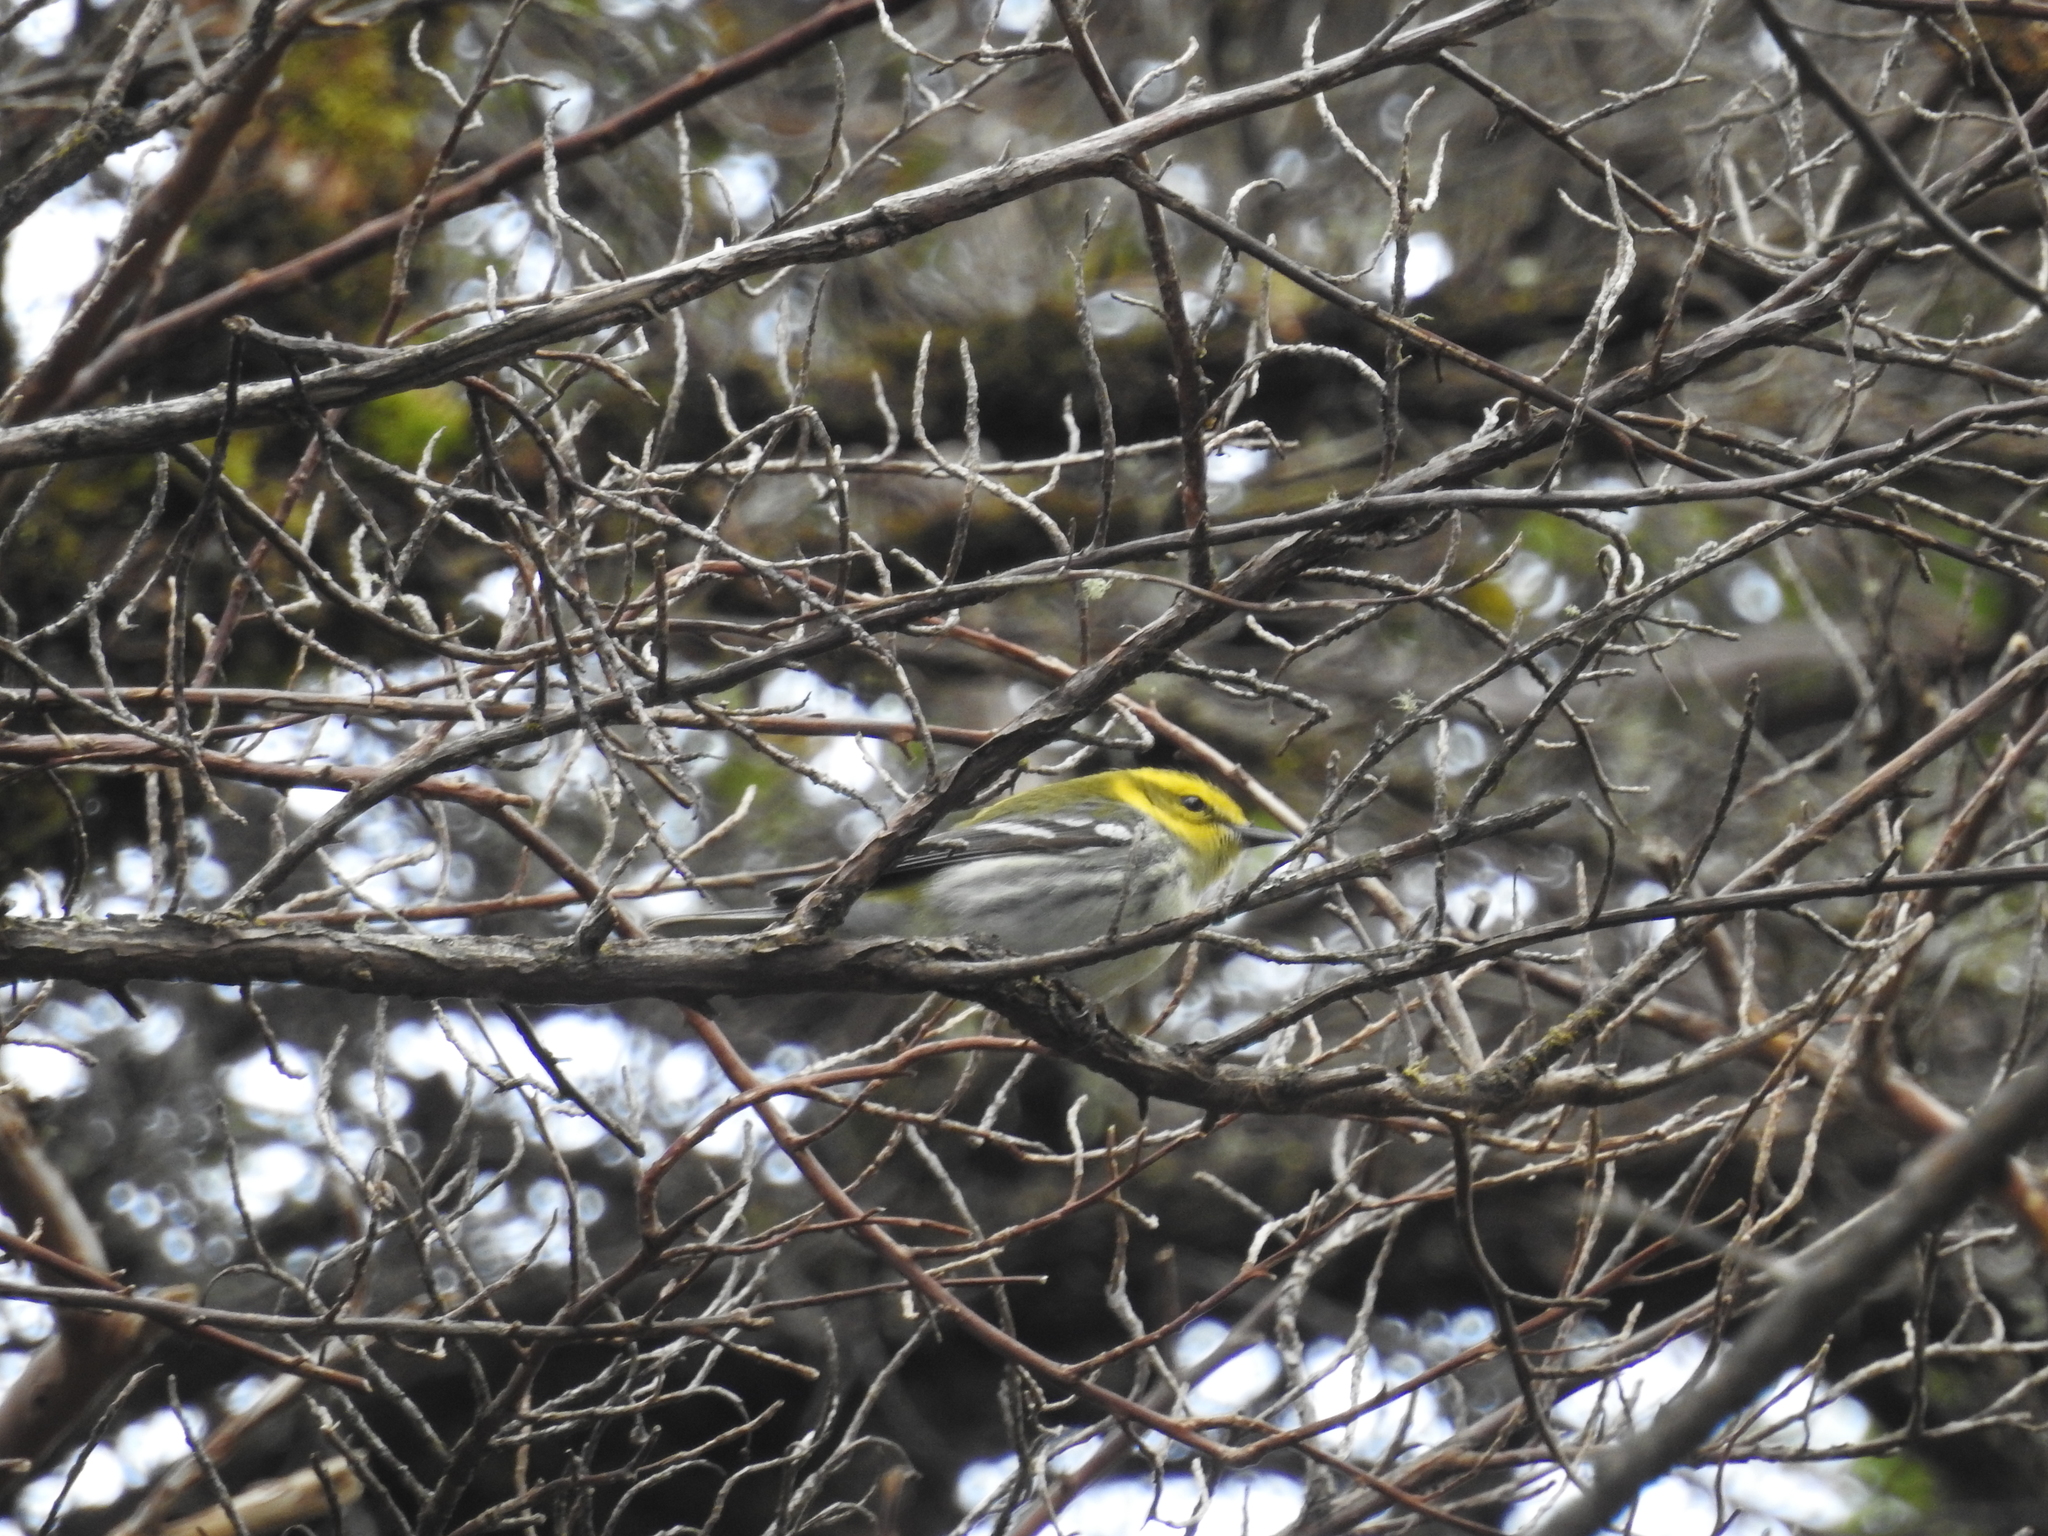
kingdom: Animalia
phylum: Chordata
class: Aves
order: Passeriformes
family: Parulidae
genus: Setophaga
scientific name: Setophaga virens
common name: Black-throated green warbler
